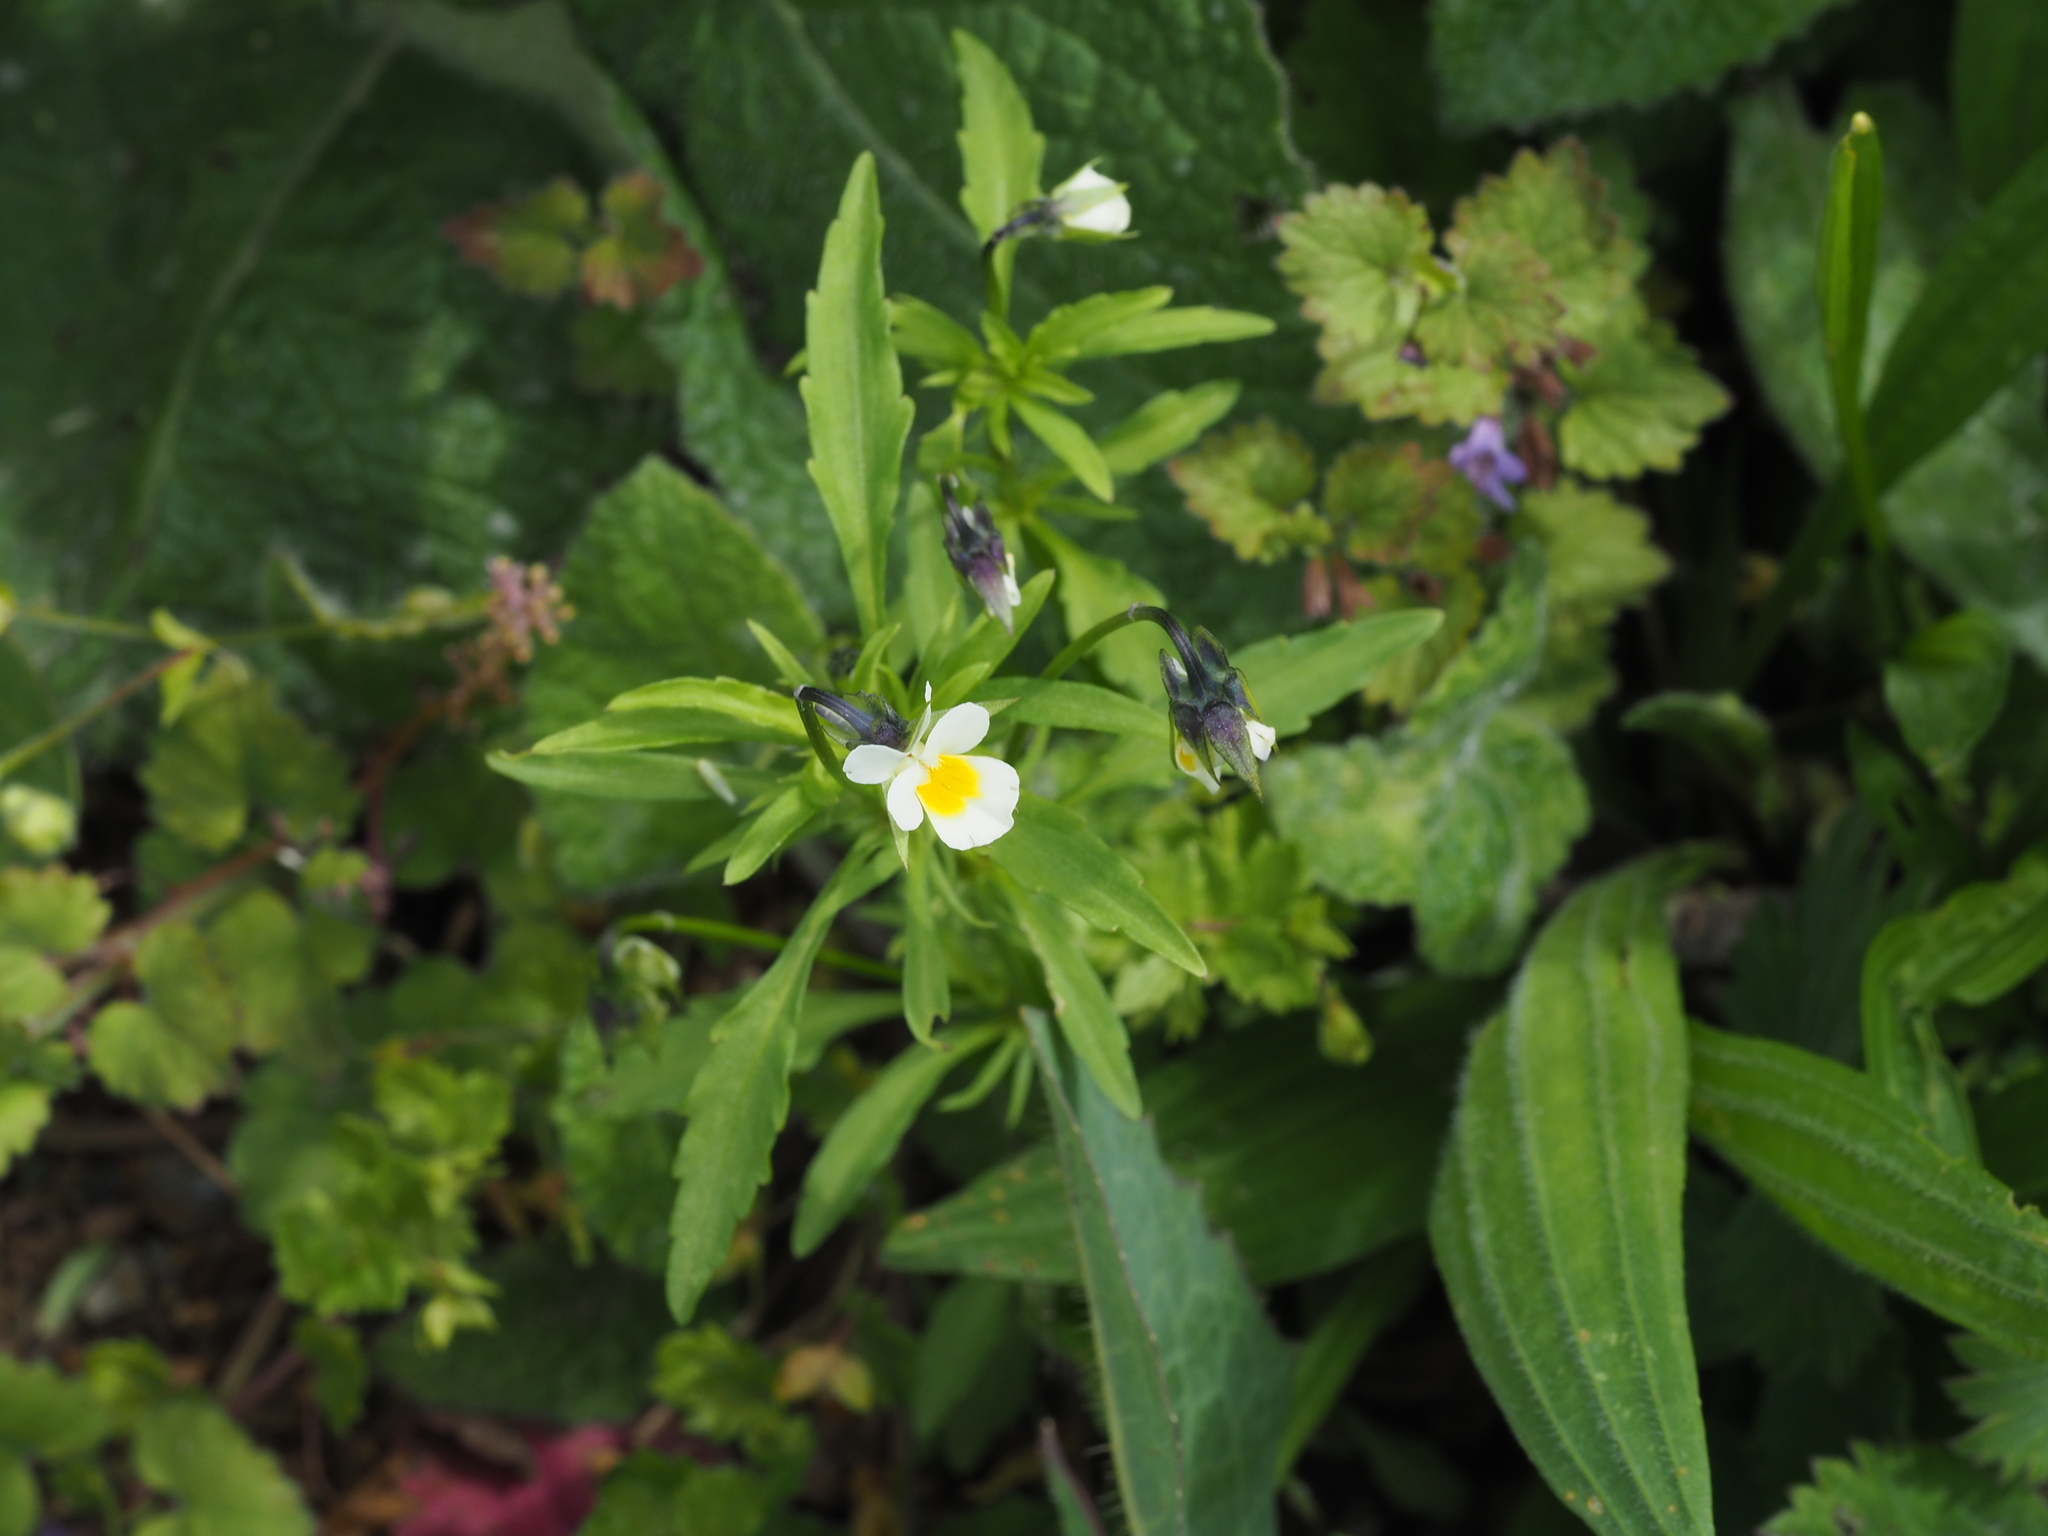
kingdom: Plantae
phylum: Tracheophyta
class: Magnoliopsida
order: Malpighiales
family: Violaceae
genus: Viola
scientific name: Viola arvensis
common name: Field pansy
